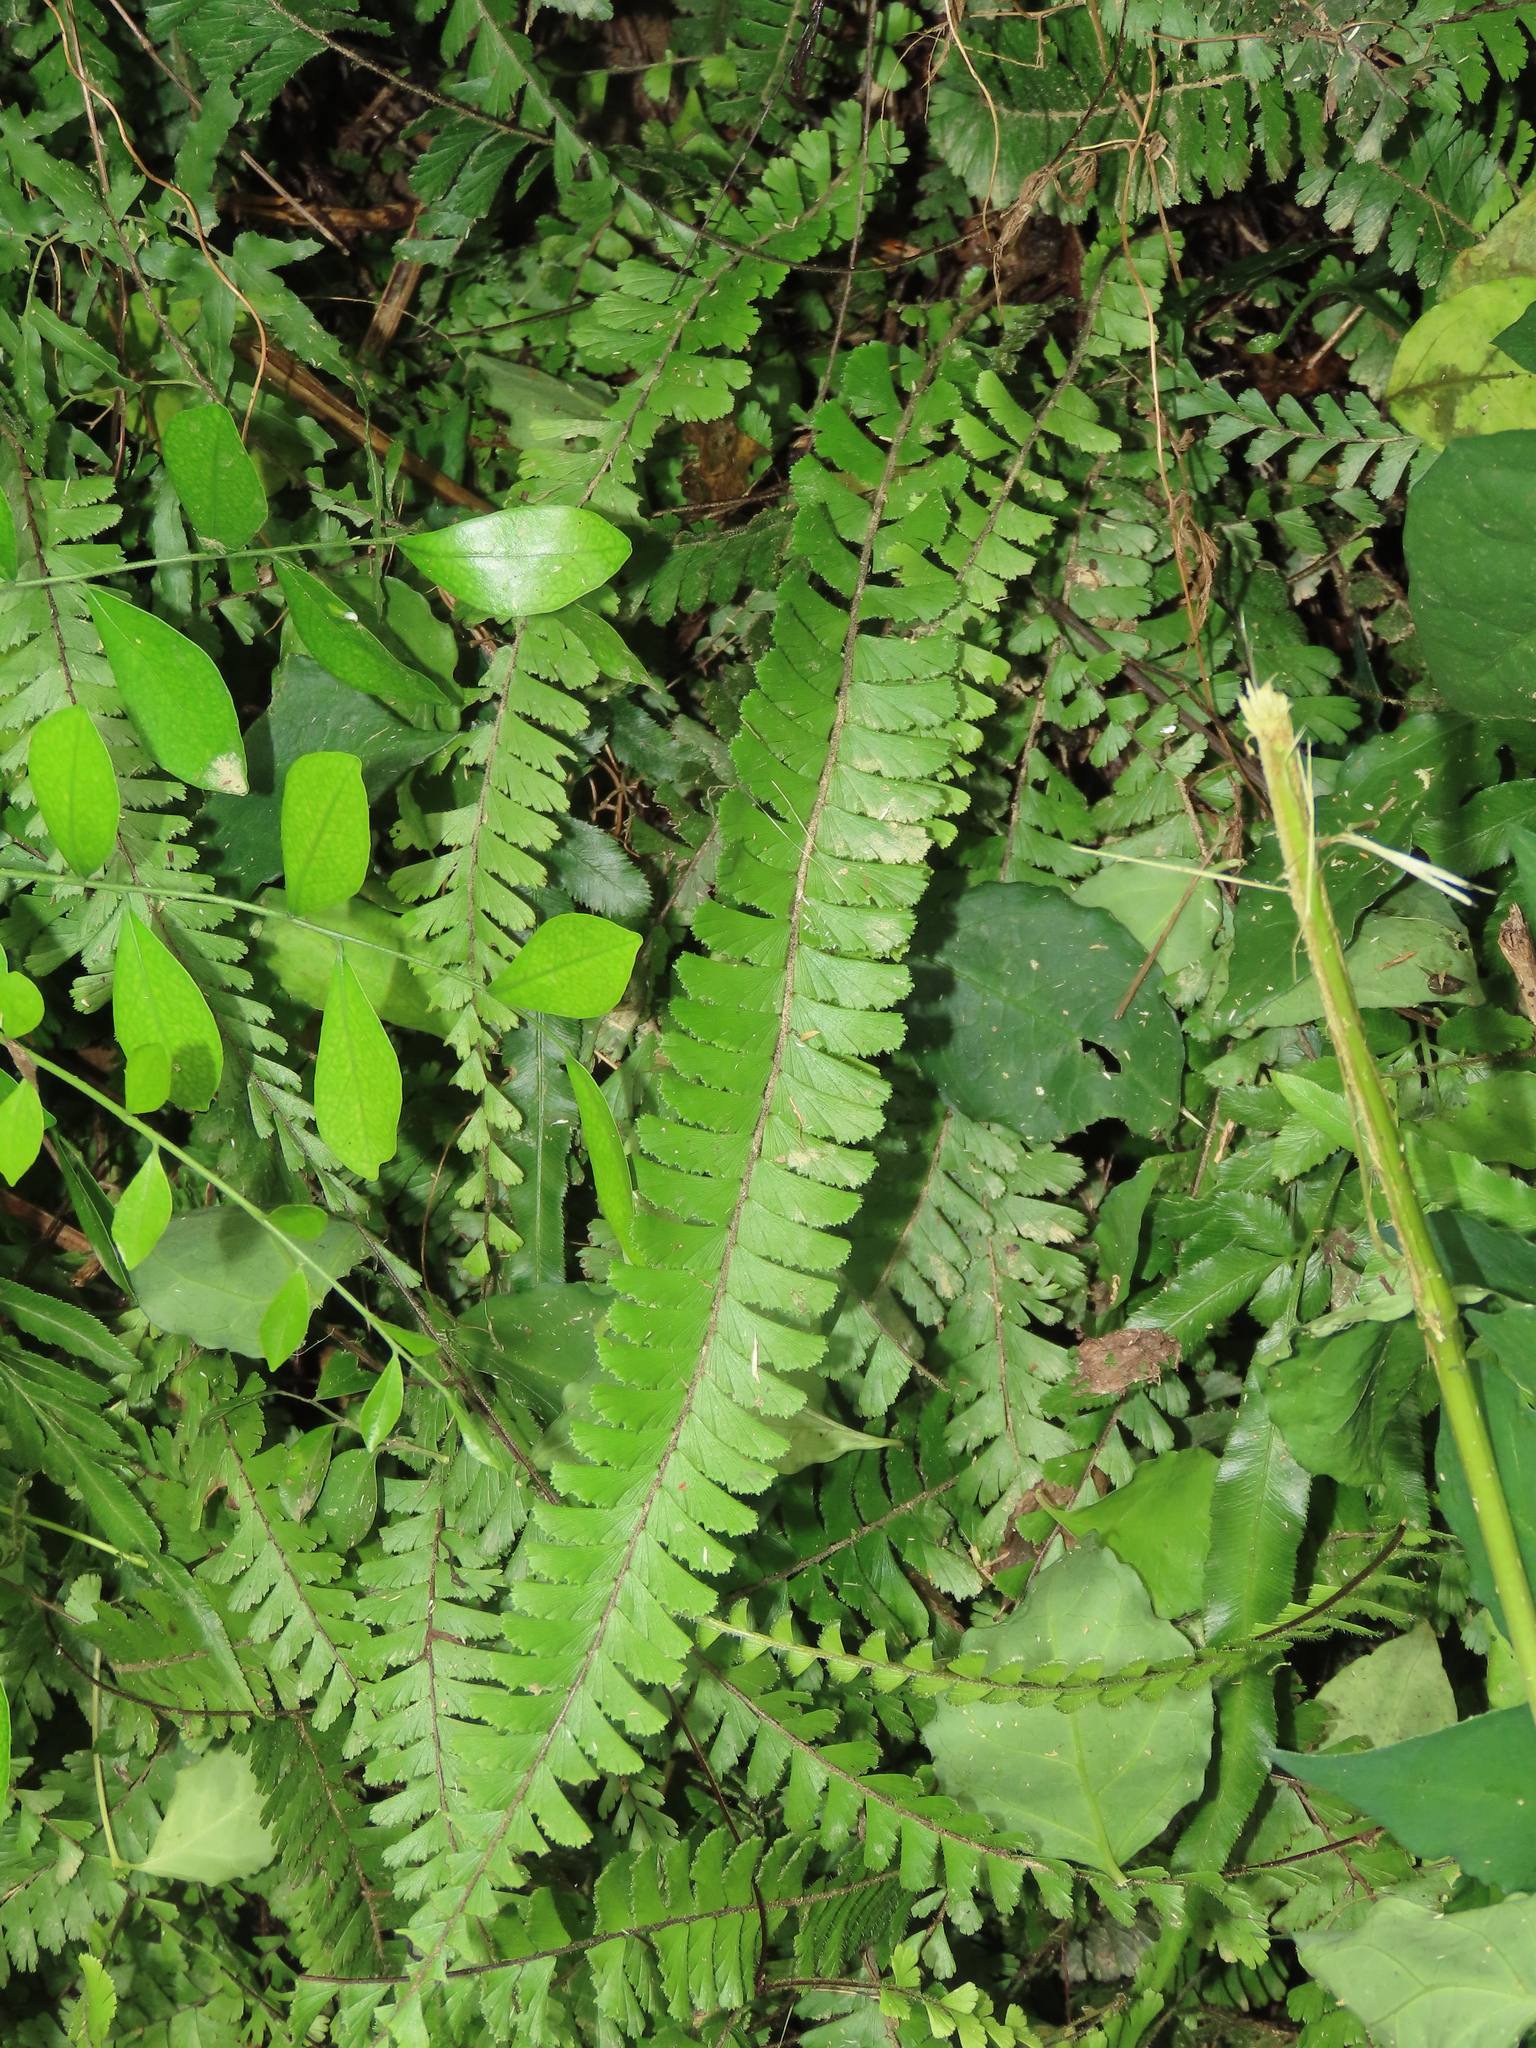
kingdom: Plantae
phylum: Tracheophyta
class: Polypodiopsida
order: Polypodiales
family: Pteridaceae
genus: Adiantum
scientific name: Adiantum caudatum
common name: Tailed maidenhair
